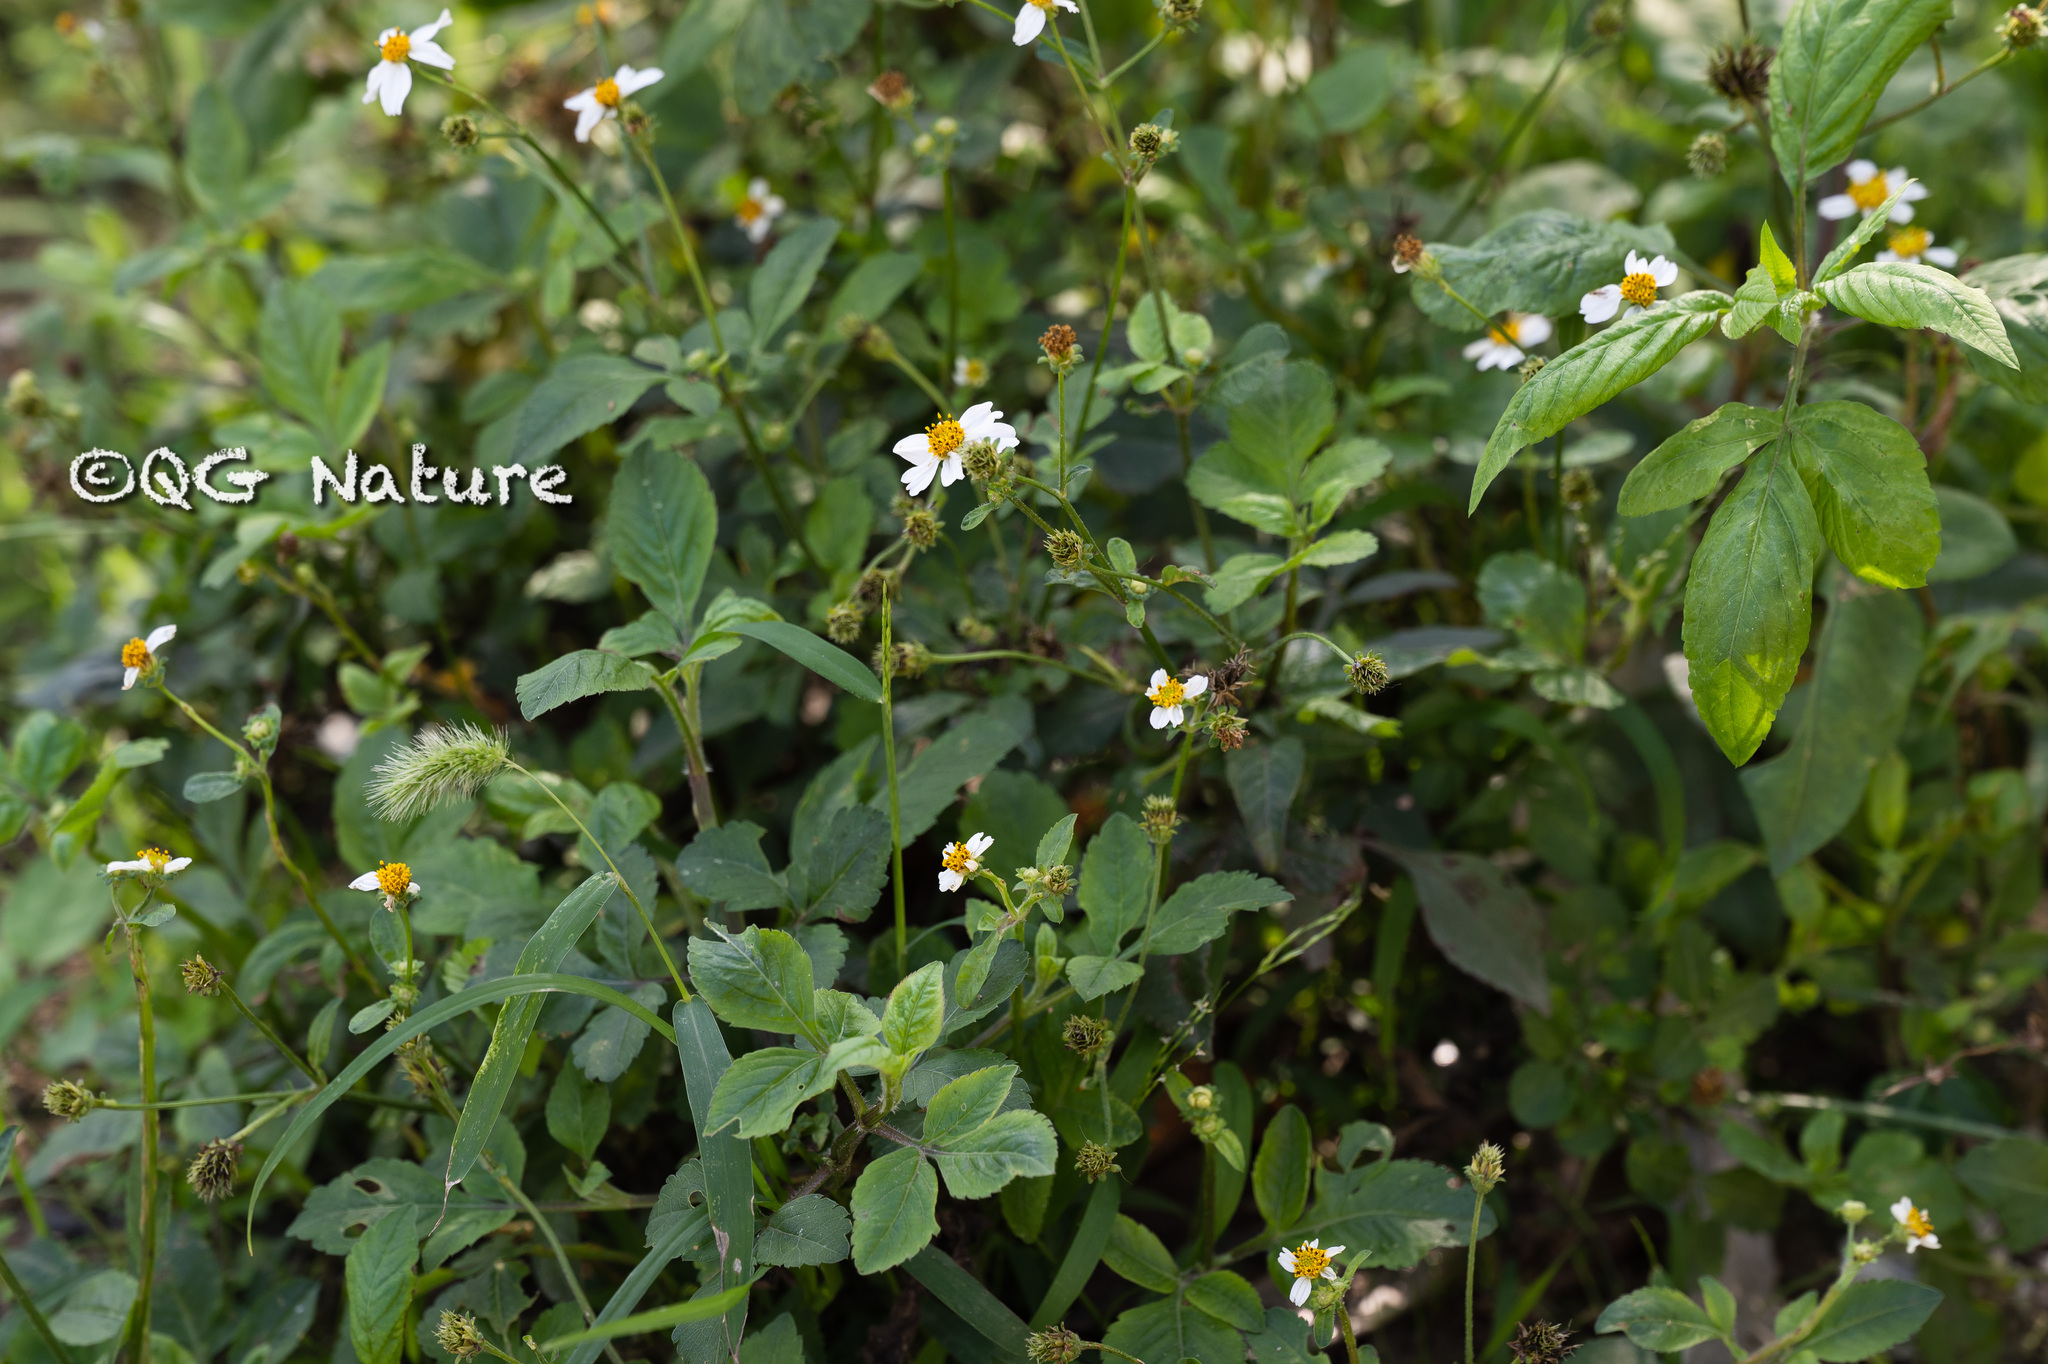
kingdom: Plantae
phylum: Tracheophyta
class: Magnoliopsida
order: Asterales
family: Asteraceae
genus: Bidens
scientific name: Bidens alba
